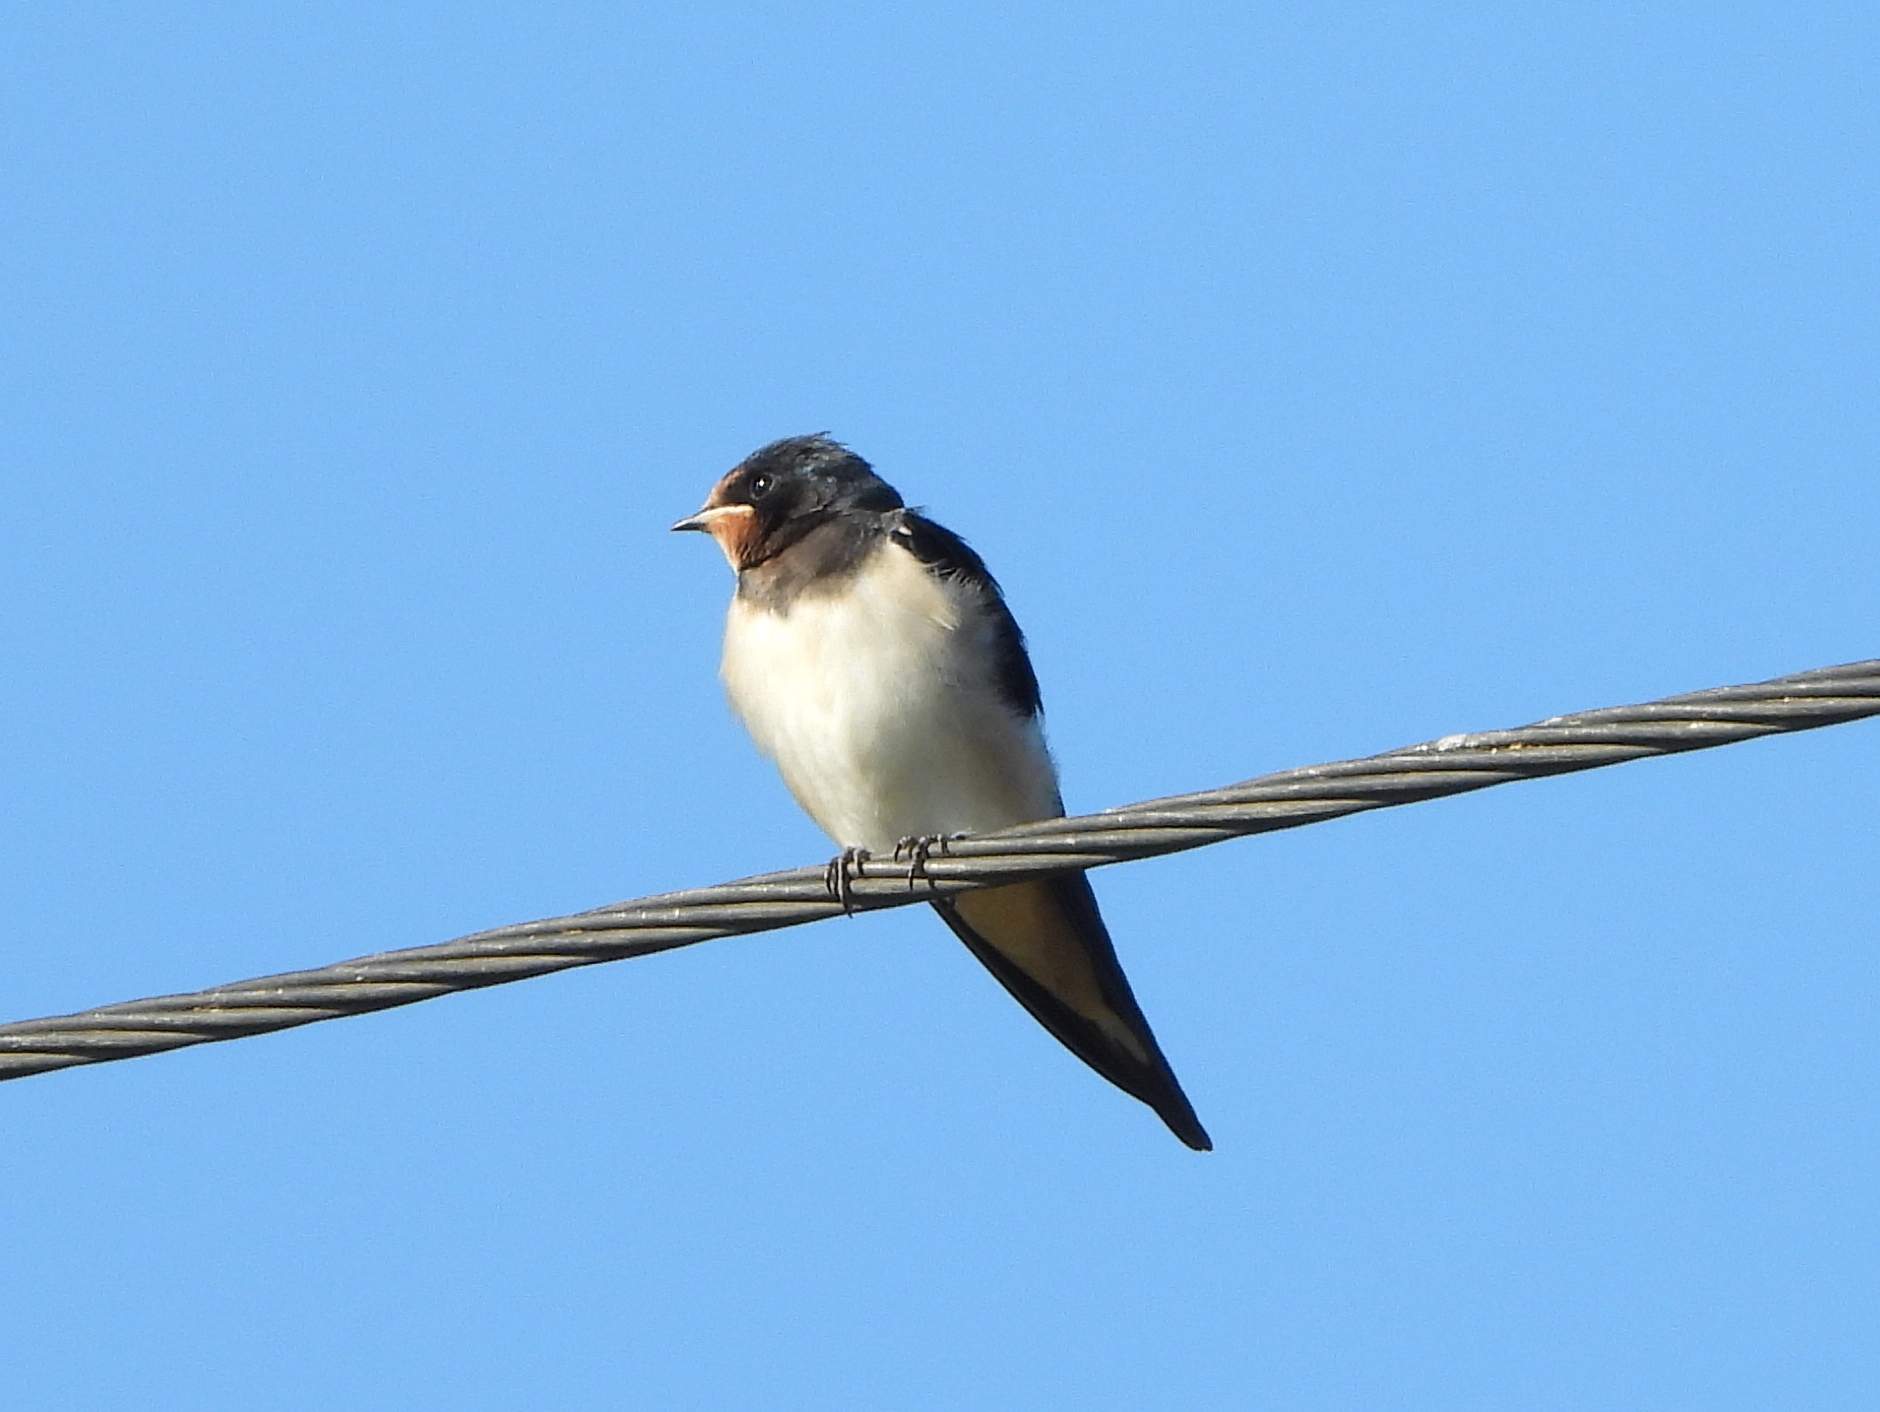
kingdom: Animalia
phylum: Chordata
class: Aves
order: Passeriformes
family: Hirundinidae
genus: Hirundo
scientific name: Hirundo rustica
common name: Barn swallow
